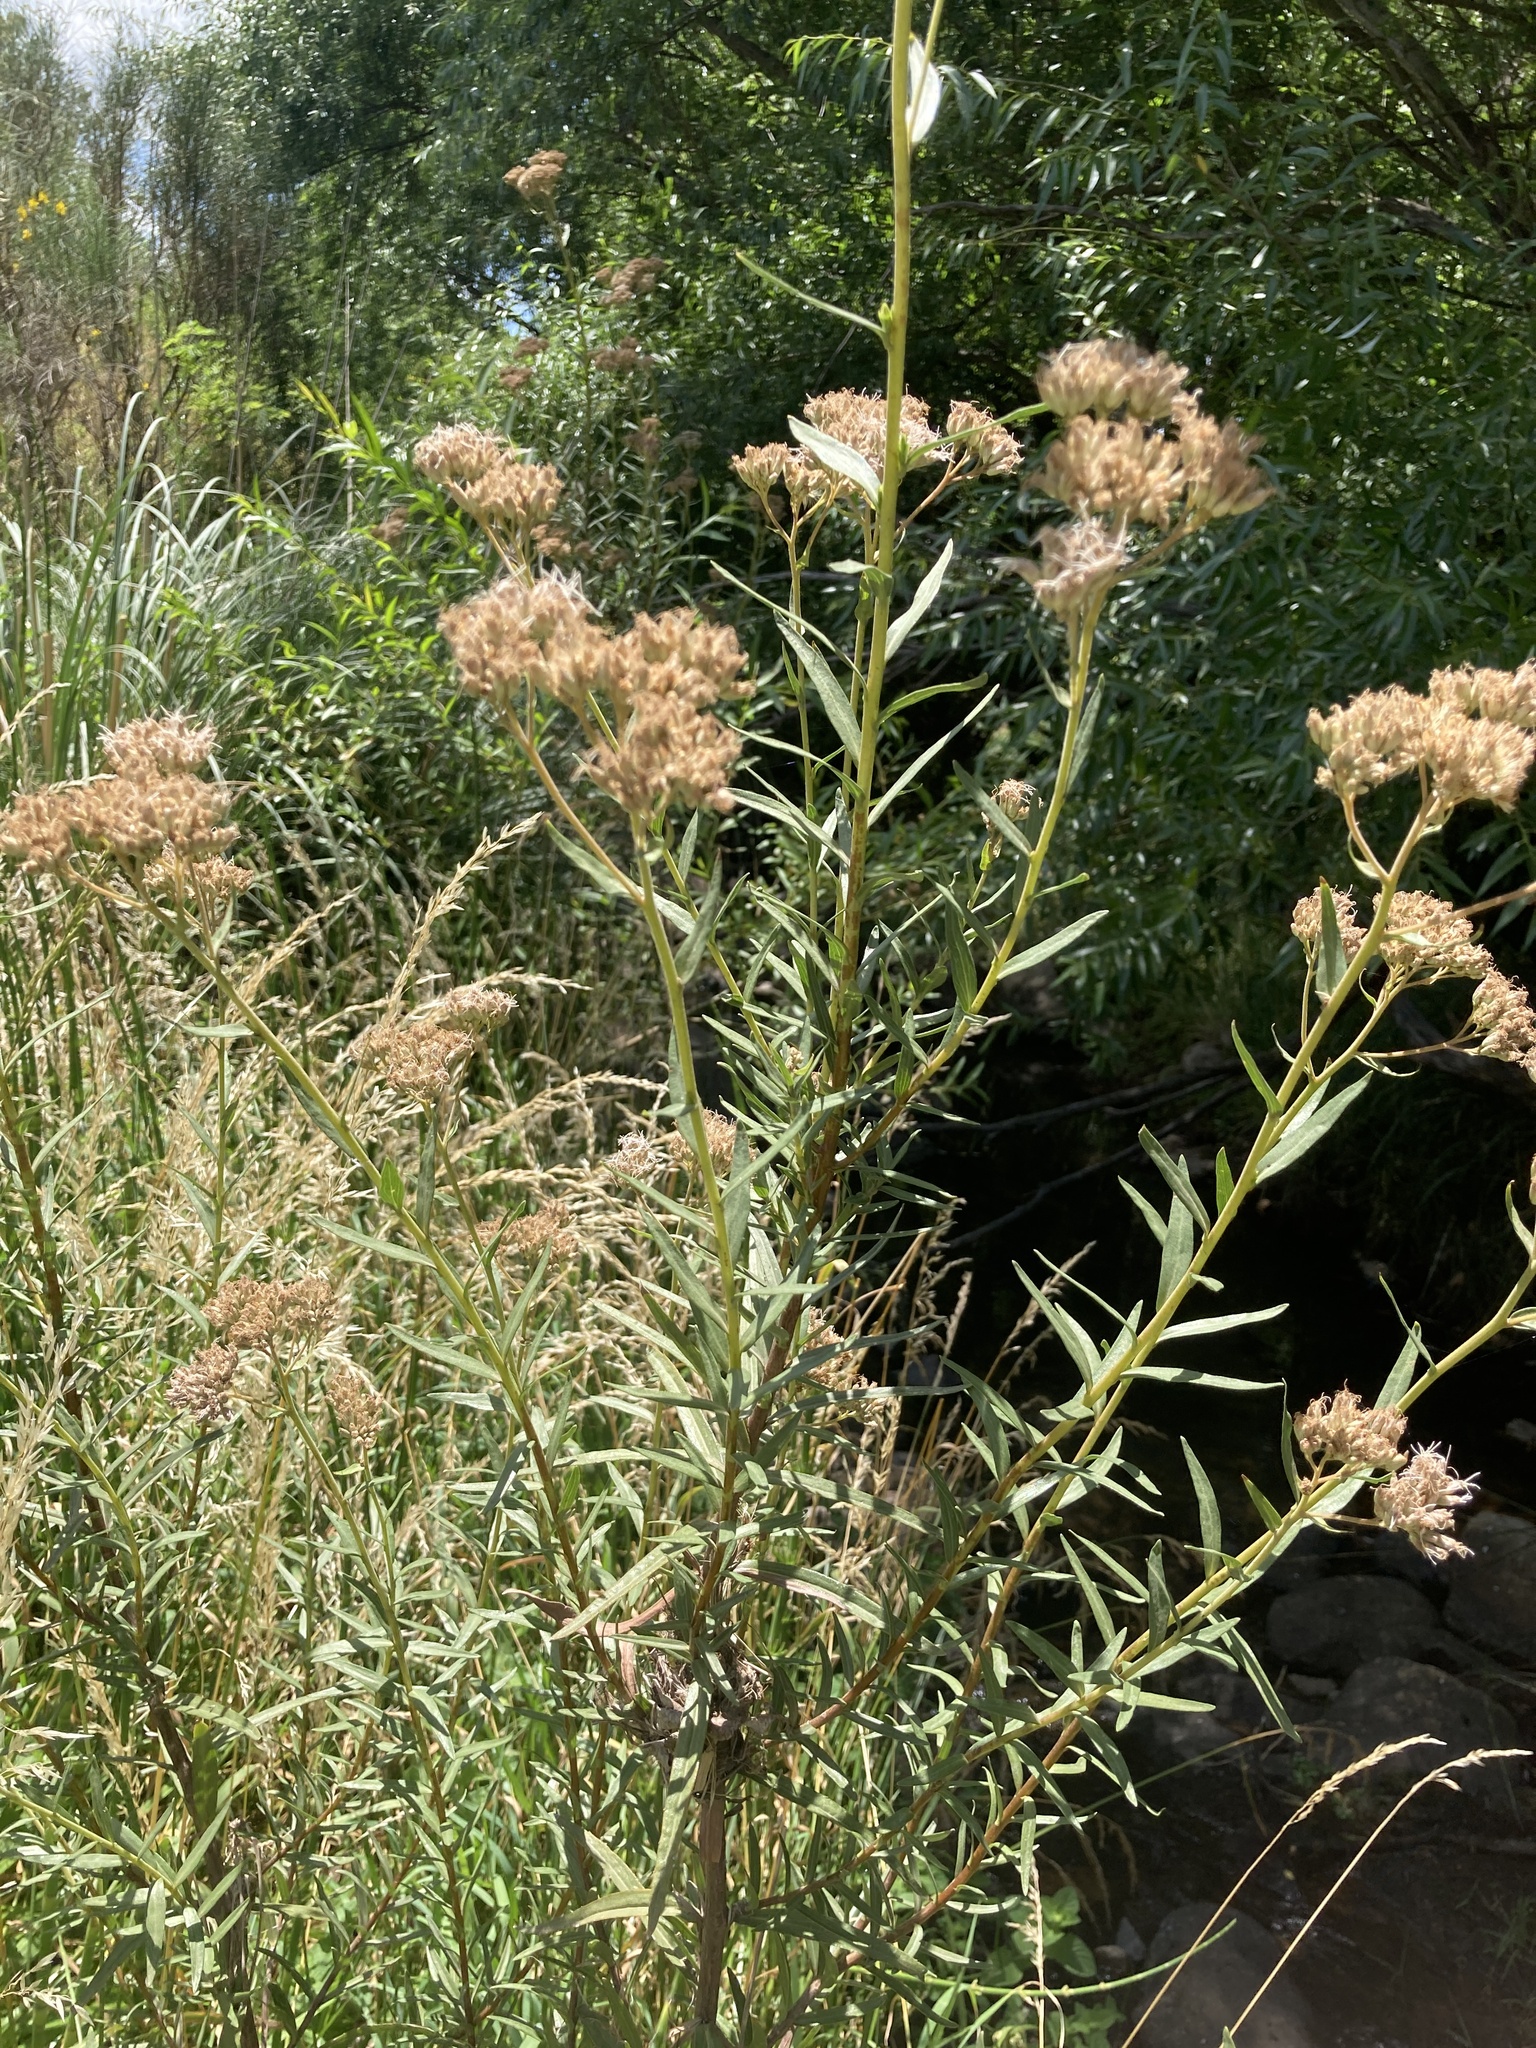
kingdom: Plantae
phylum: Tracheophyta
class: Magnoliopsida
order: Asterales
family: Asteraceae
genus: Campovassouria
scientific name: Campovassouria cruciata
